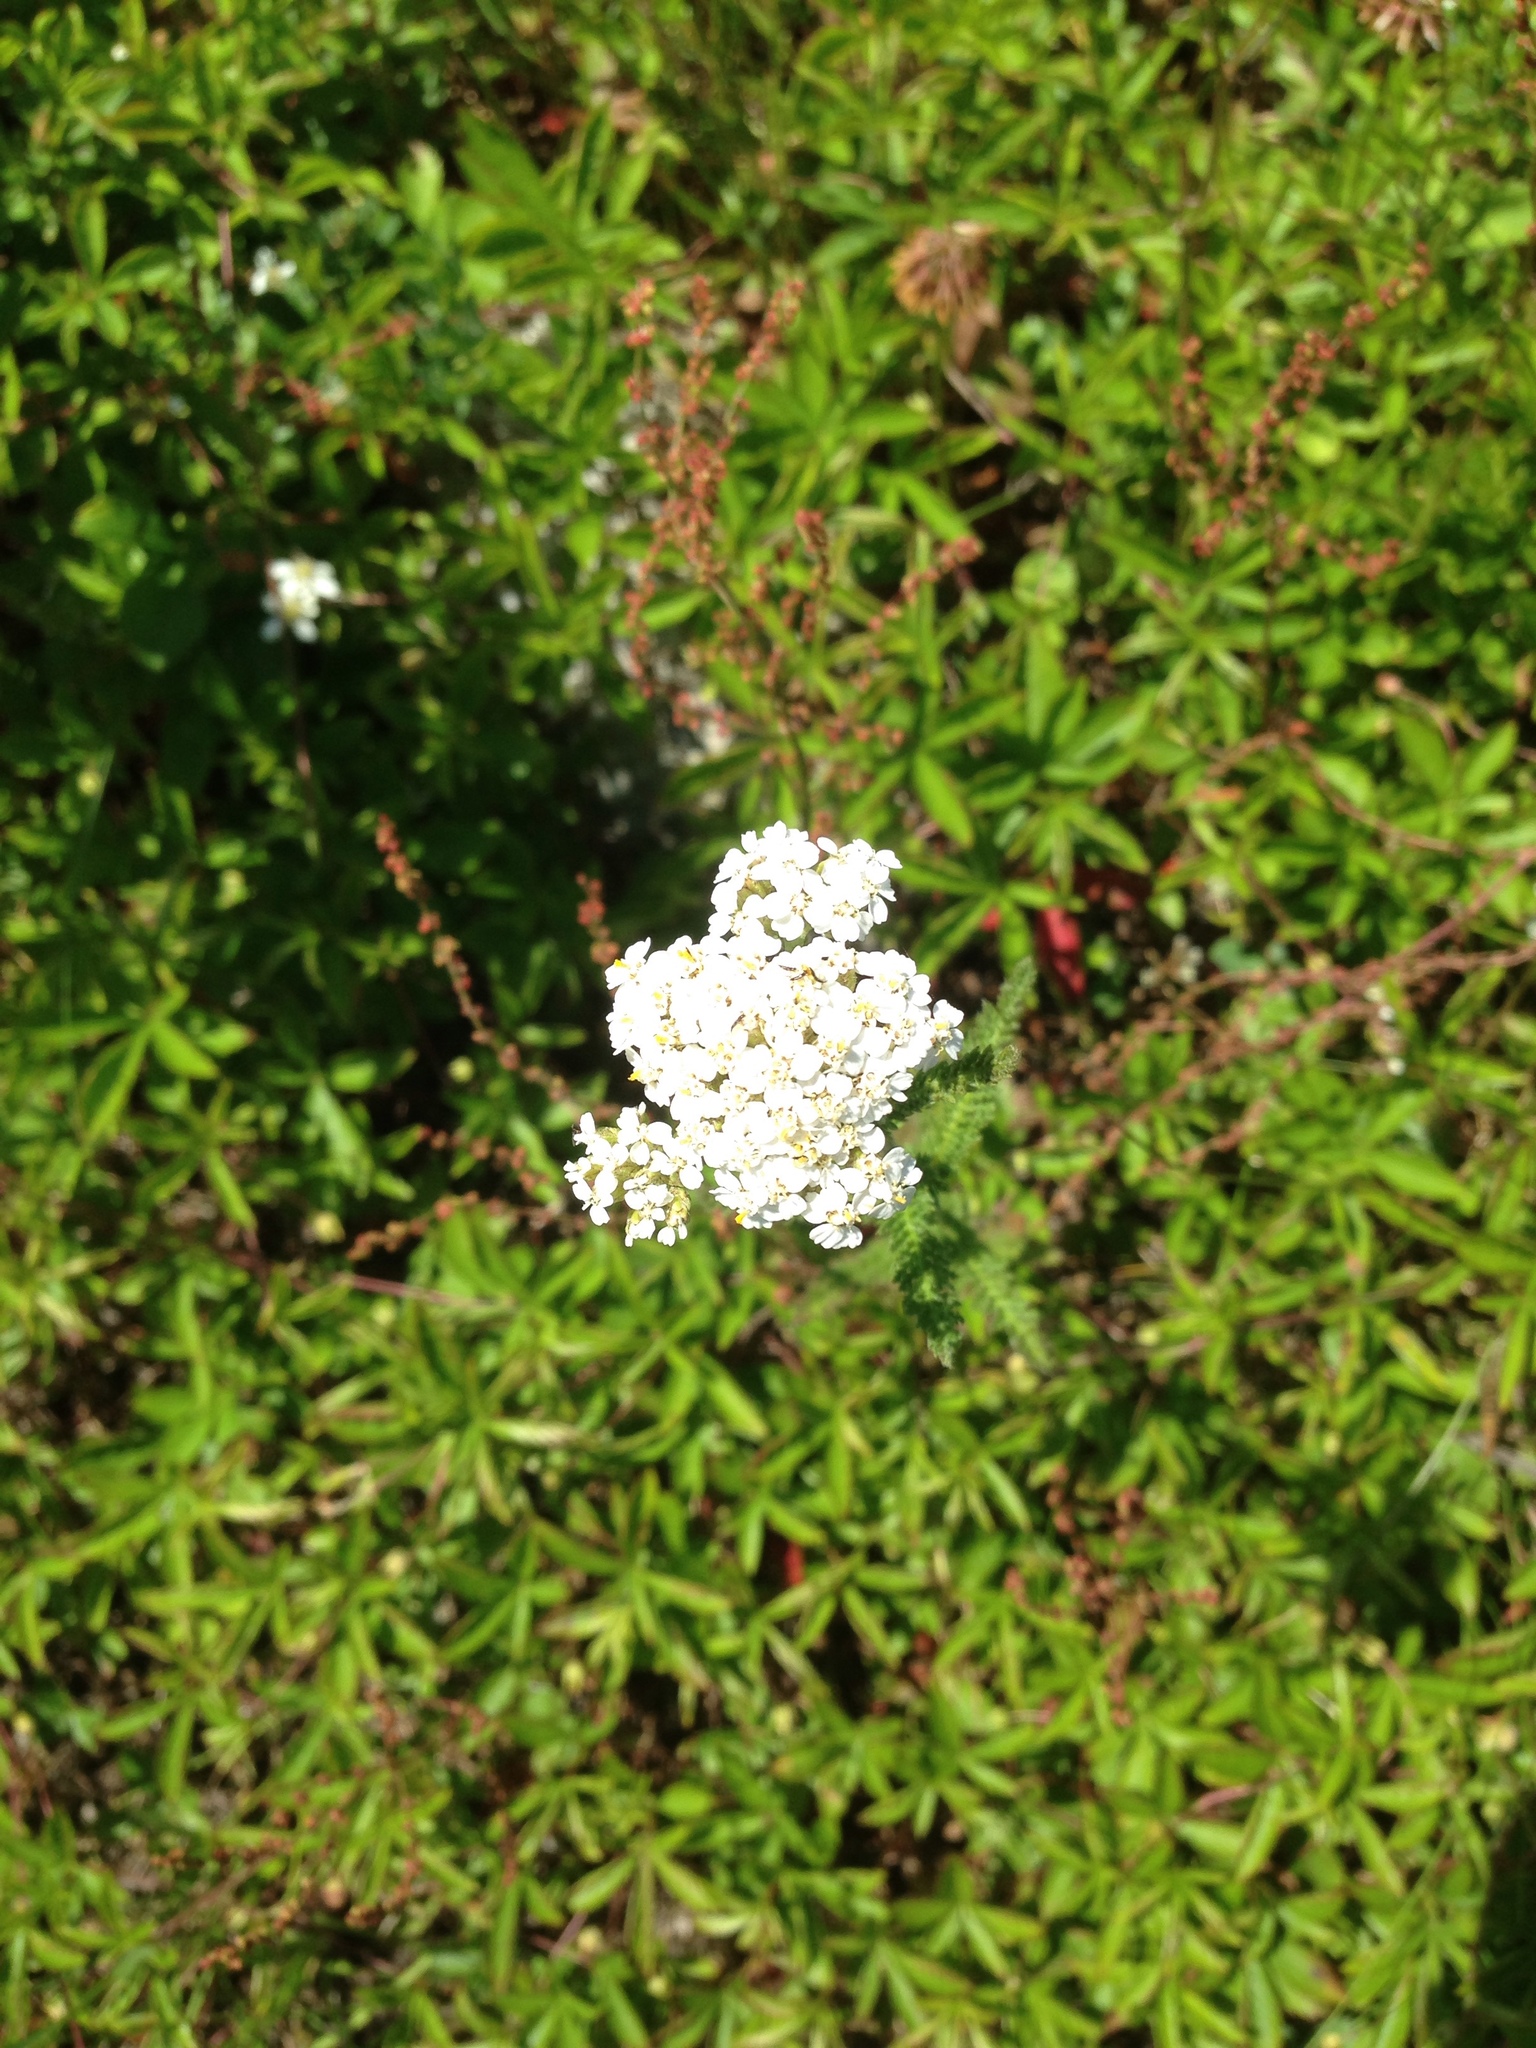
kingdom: Plantae
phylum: Tracheophyta
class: Magnoliopsida
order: Asterales
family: Asteraceae
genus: Achillea
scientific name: Achillea millefolium
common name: Yarrow
